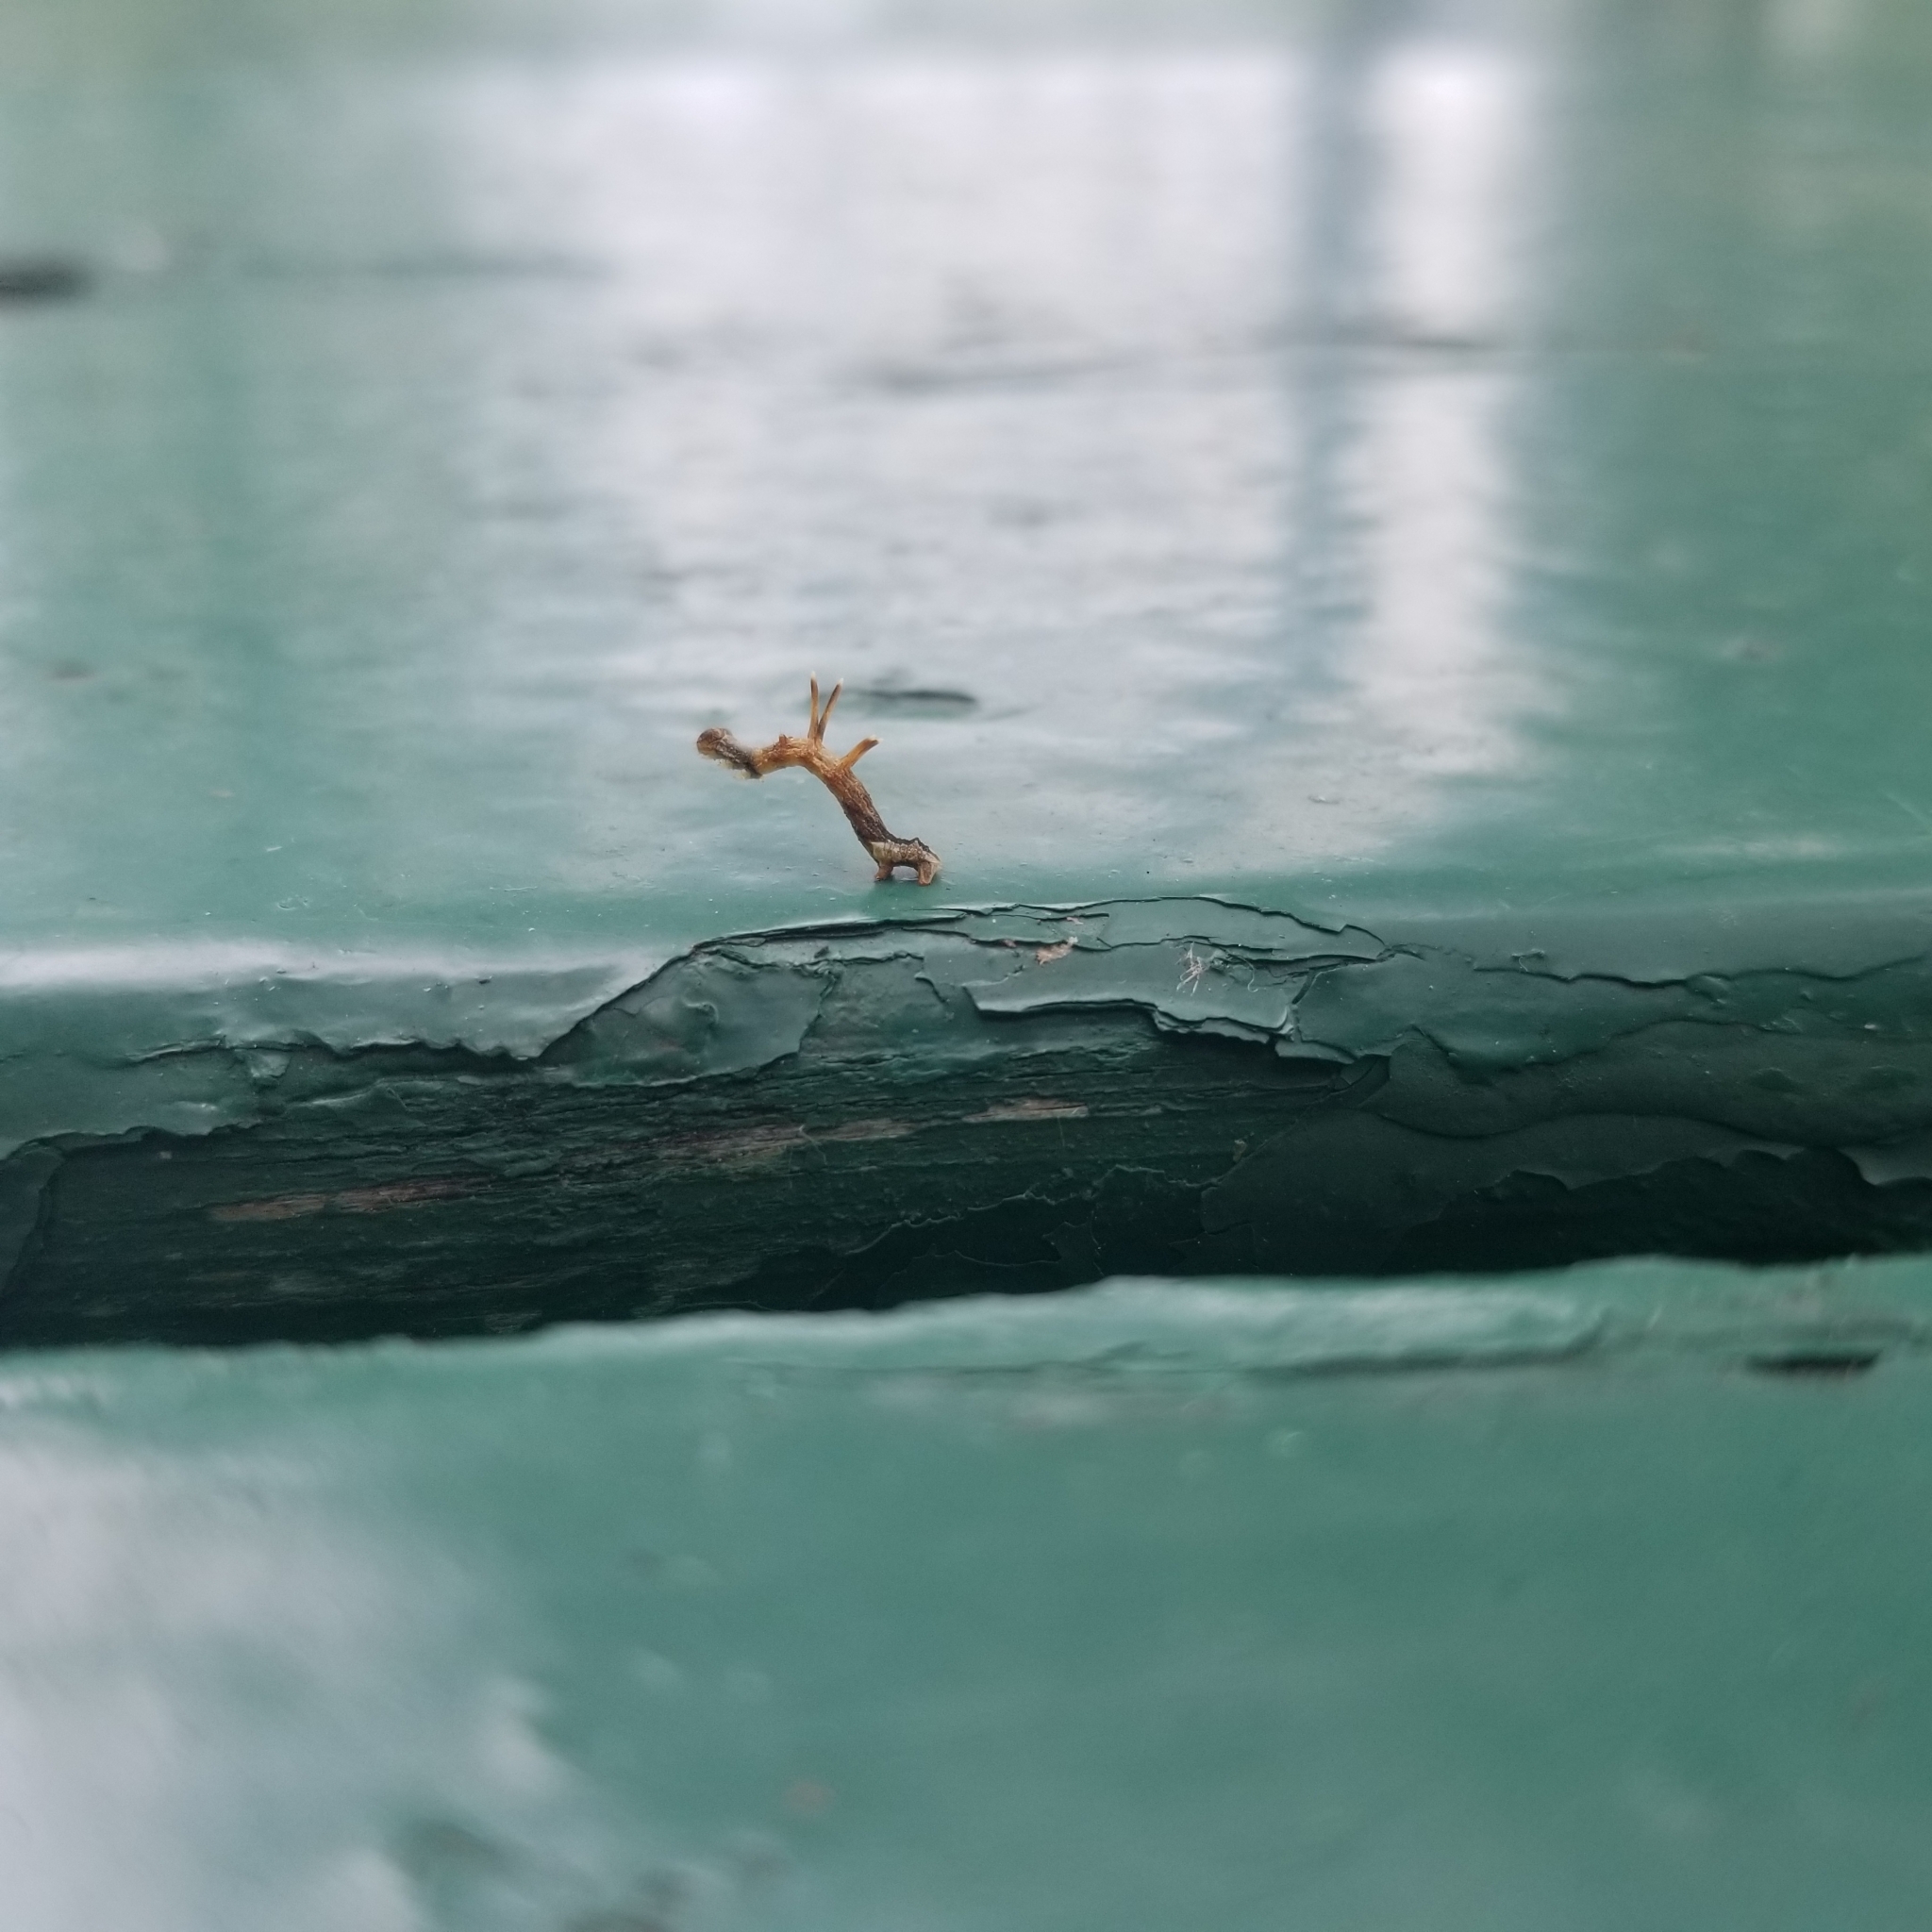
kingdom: Animalia
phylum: Arthropoda
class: Insecta
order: Lepidoptera
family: Geometridae
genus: Nematocampa
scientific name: Nematocampa resistaria
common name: Horned spanworm moth
